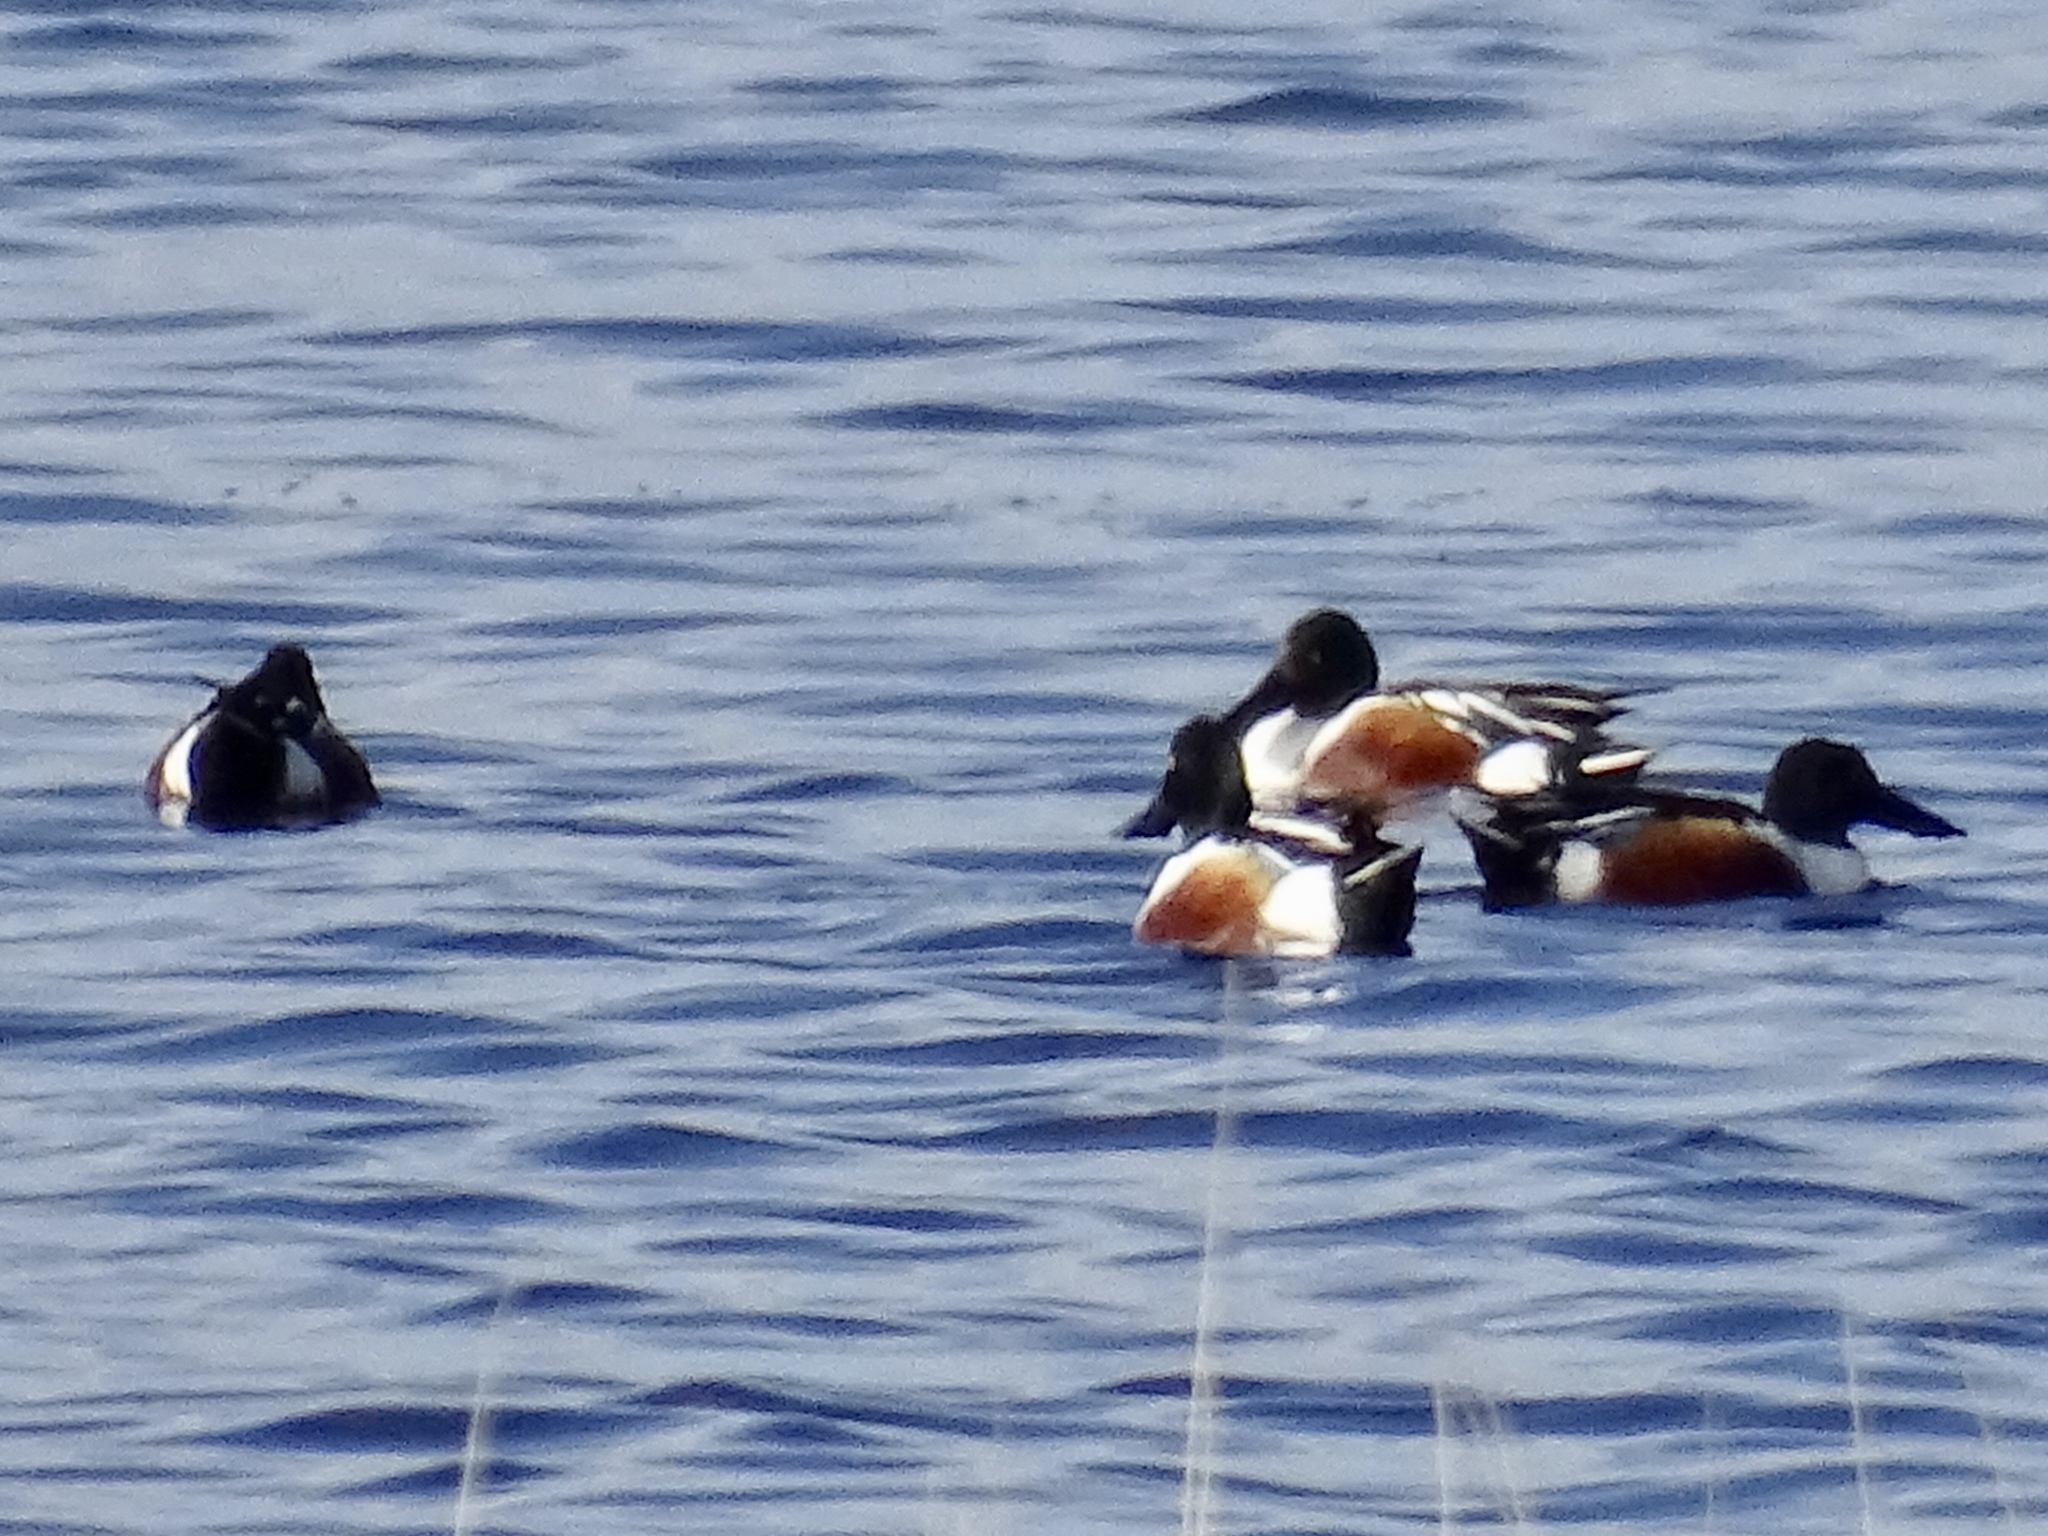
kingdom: Animalia
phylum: Chordata
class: Aves
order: Anseriformes
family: Anatidae
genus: Spatula
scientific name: Spatula clypeata
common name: Northern shoveler
